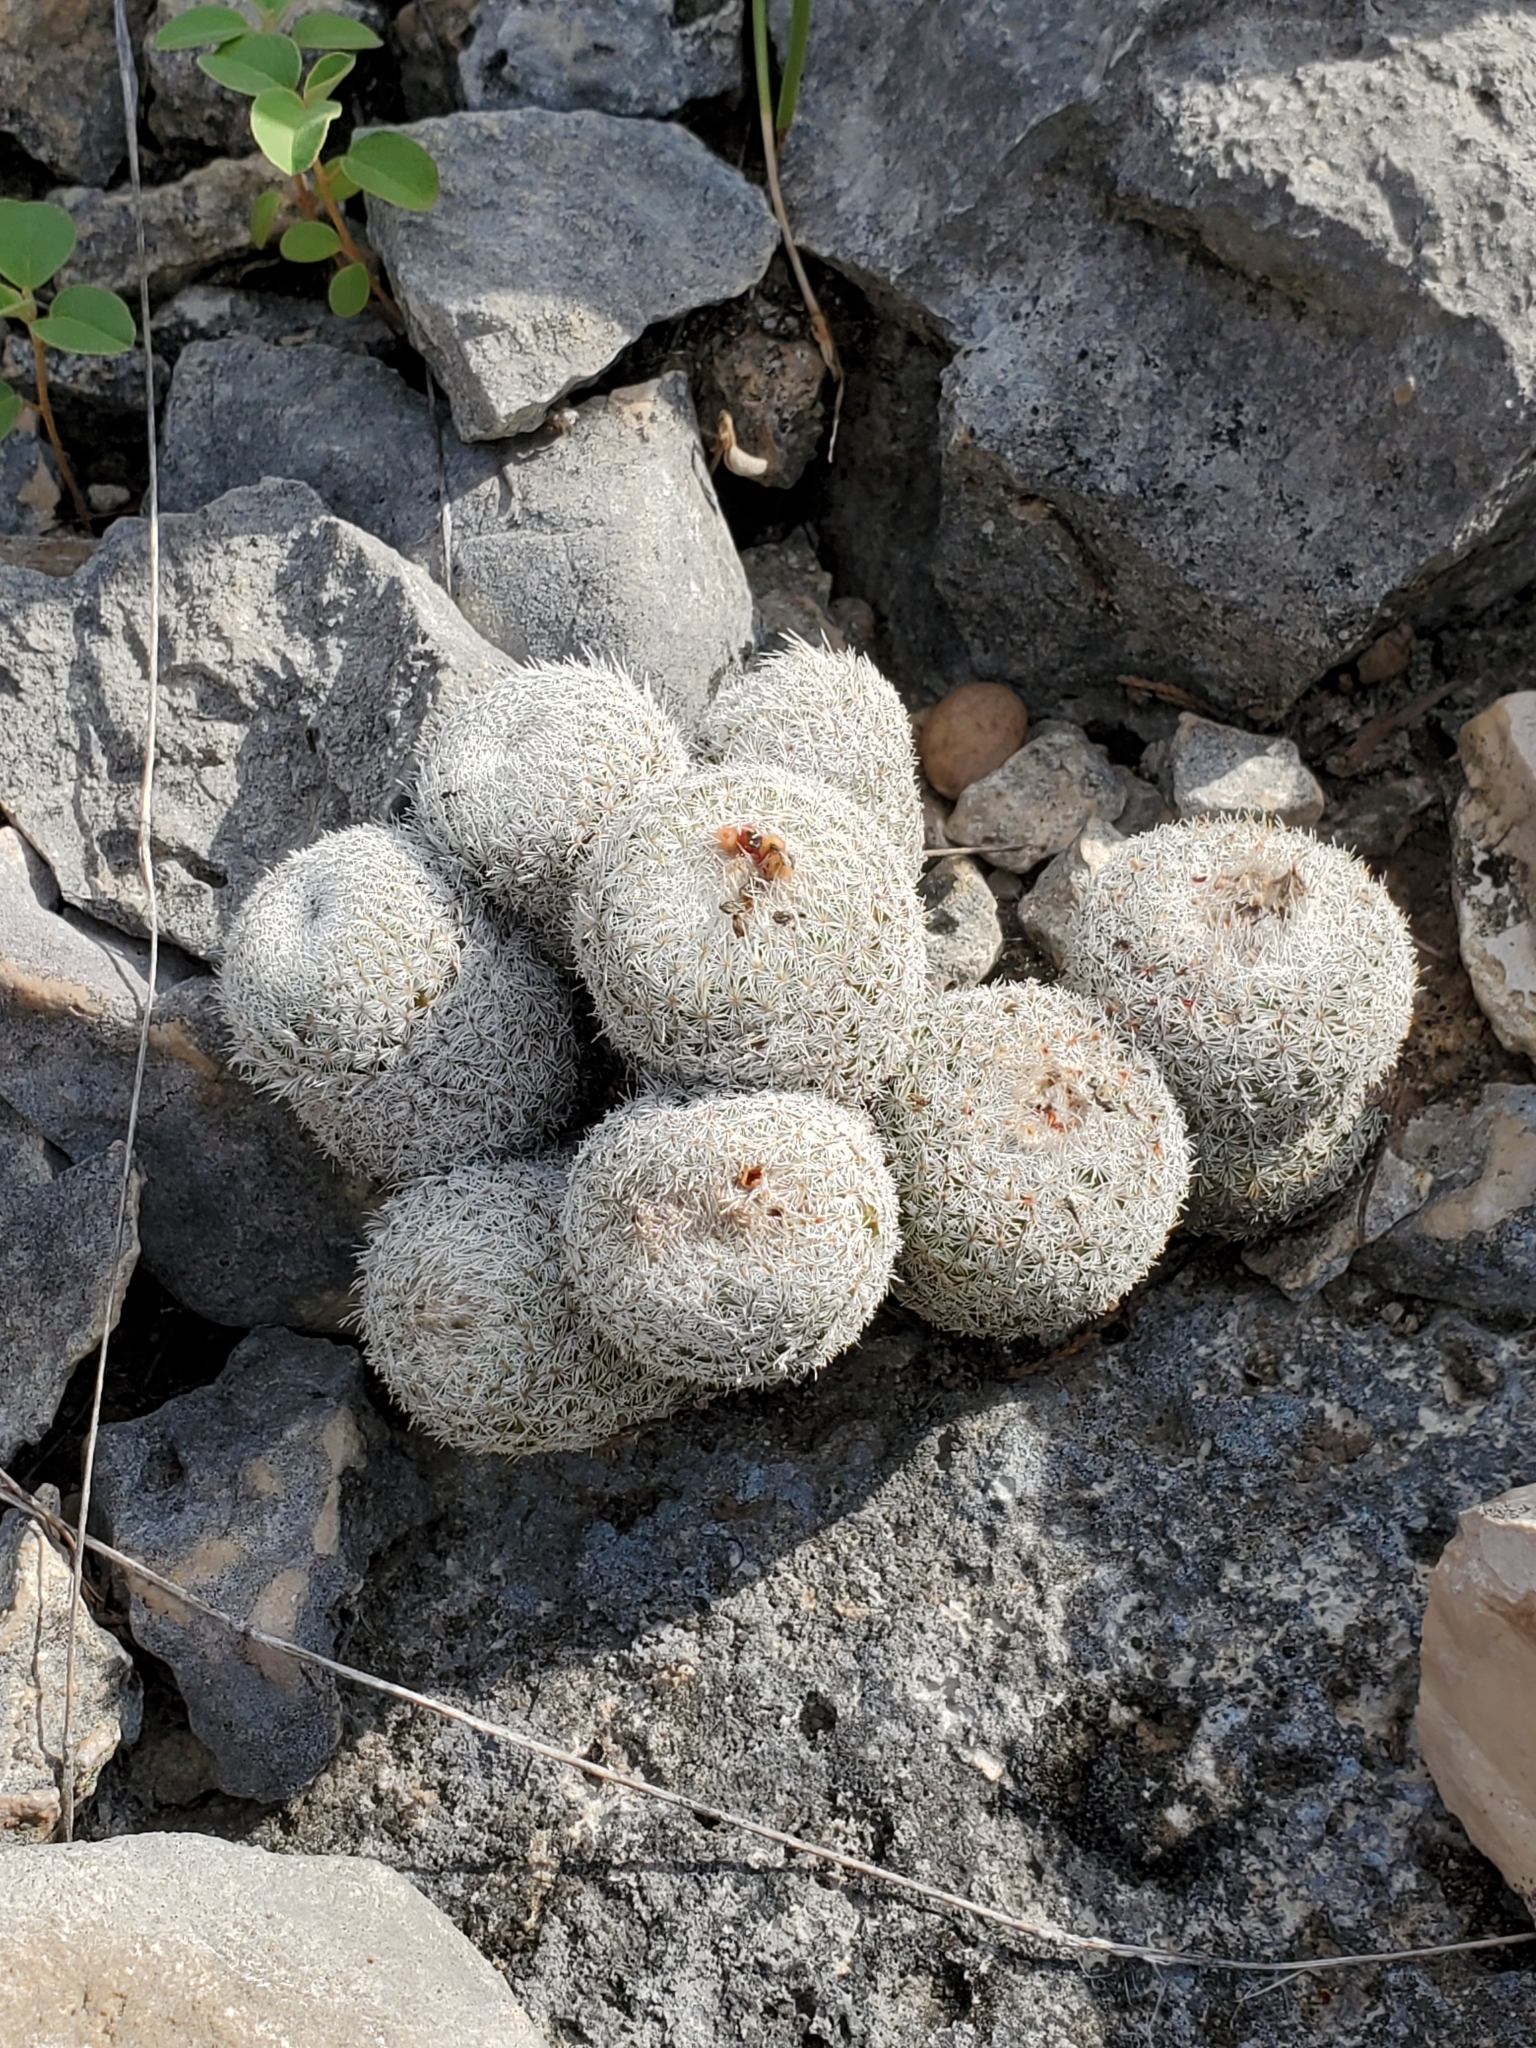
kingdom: Plantae
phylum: Tracheophyta
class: Magnoliopsida
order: Caryophyllales
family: Cactaceae
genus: Epithelantha
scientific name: Epithelantha micromeris
